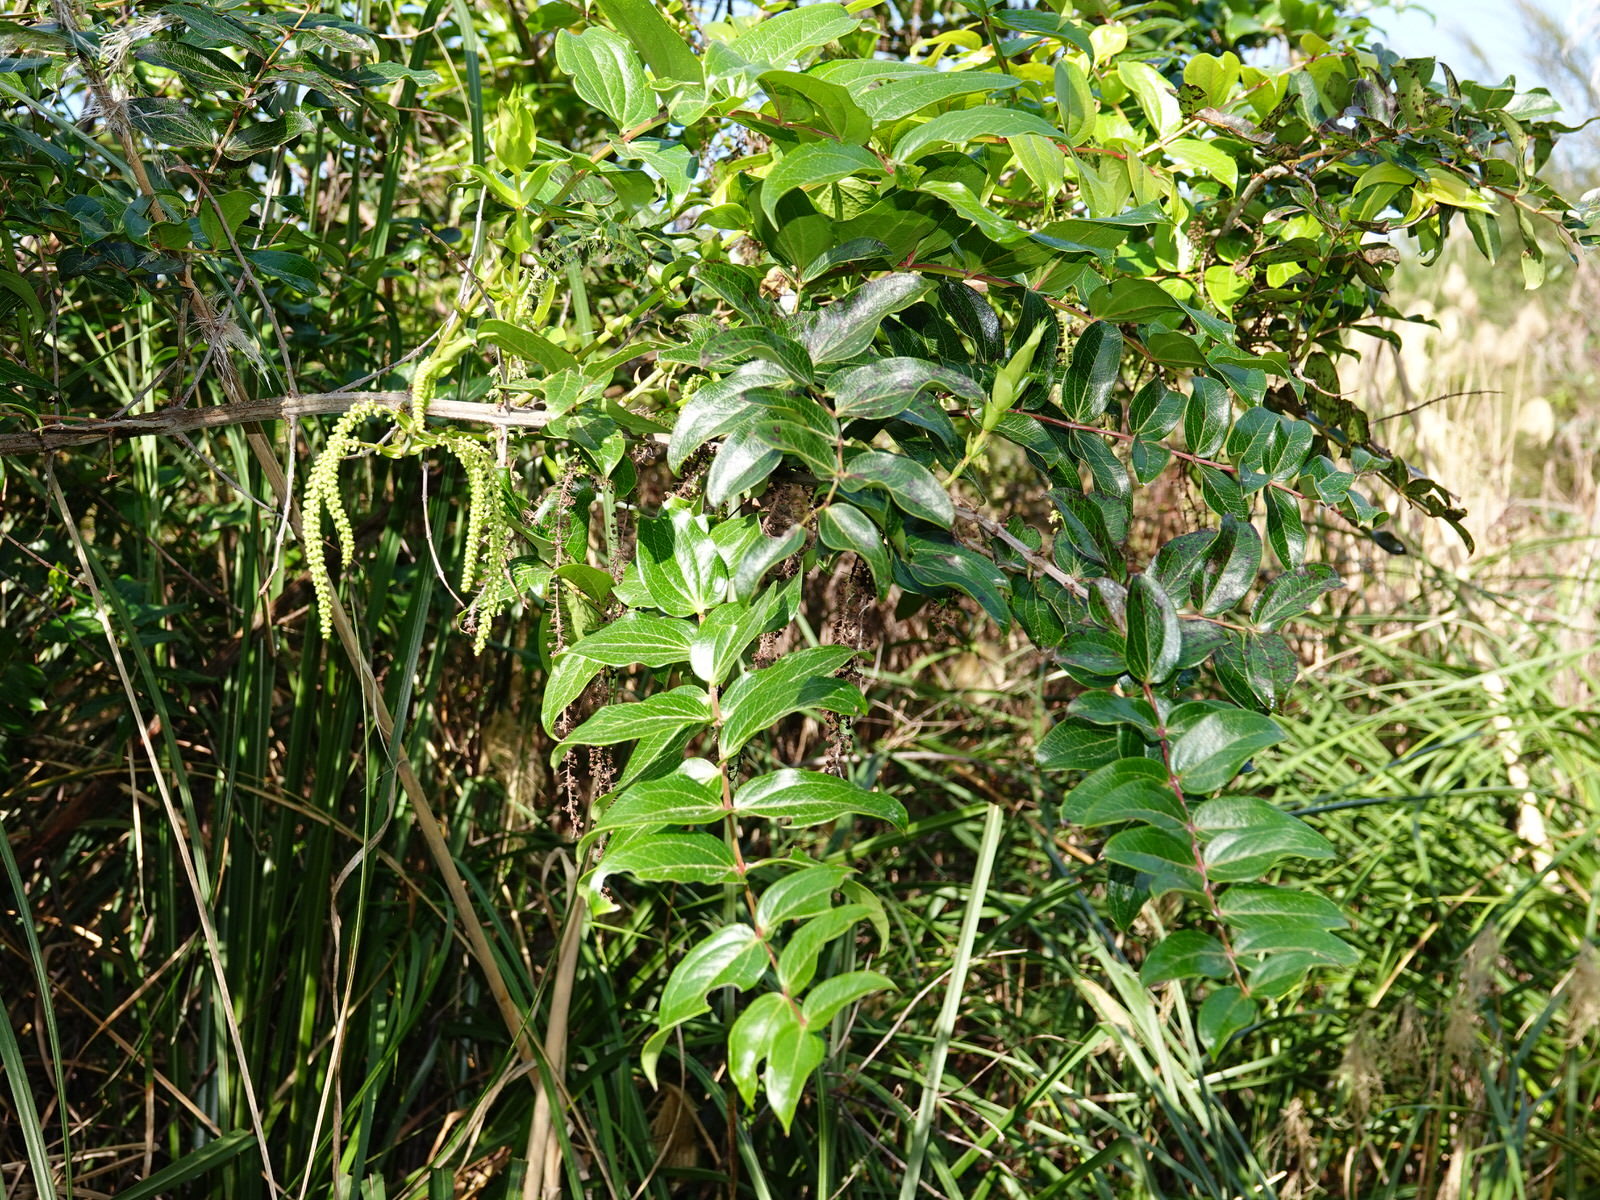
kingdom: Plantae
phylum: Tracheophyta
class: Magnoliopsida
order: Cucurbitales
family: Coriariaceae
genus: Coriaria
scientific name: Coriaria arborea
